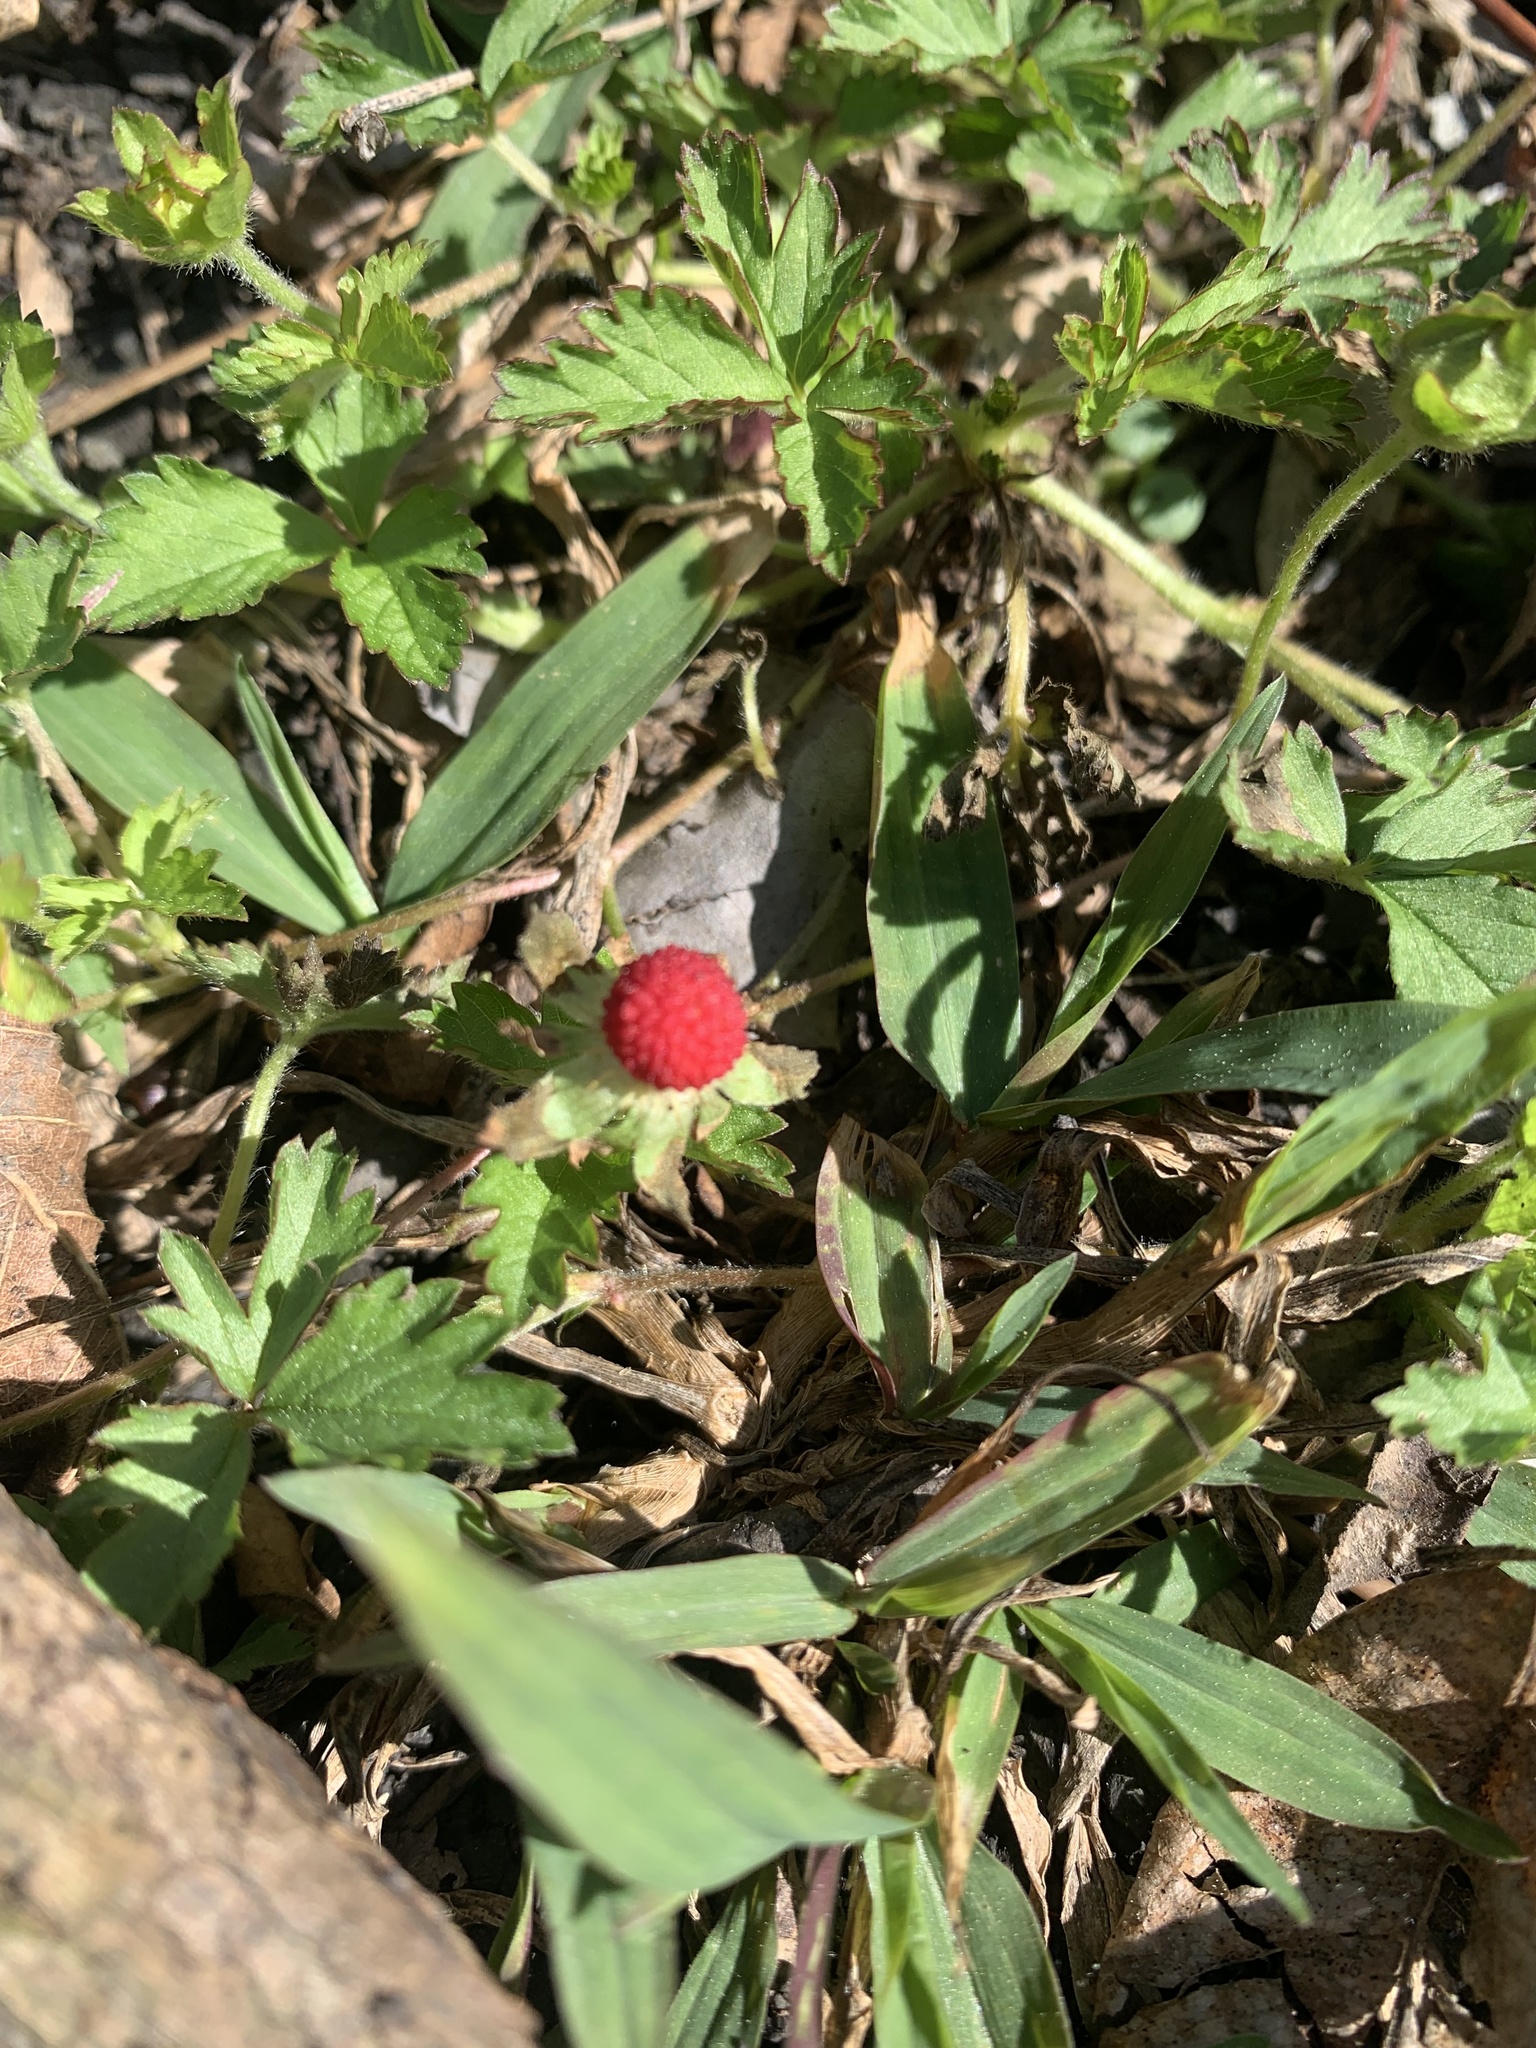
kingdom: Plantae
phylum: Tracheophyta
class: Magnoliopsida
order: Rosales
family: Rosaceae
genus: Potentilla
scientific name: Potentilla indica
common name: Yellow-flowered strawberry
